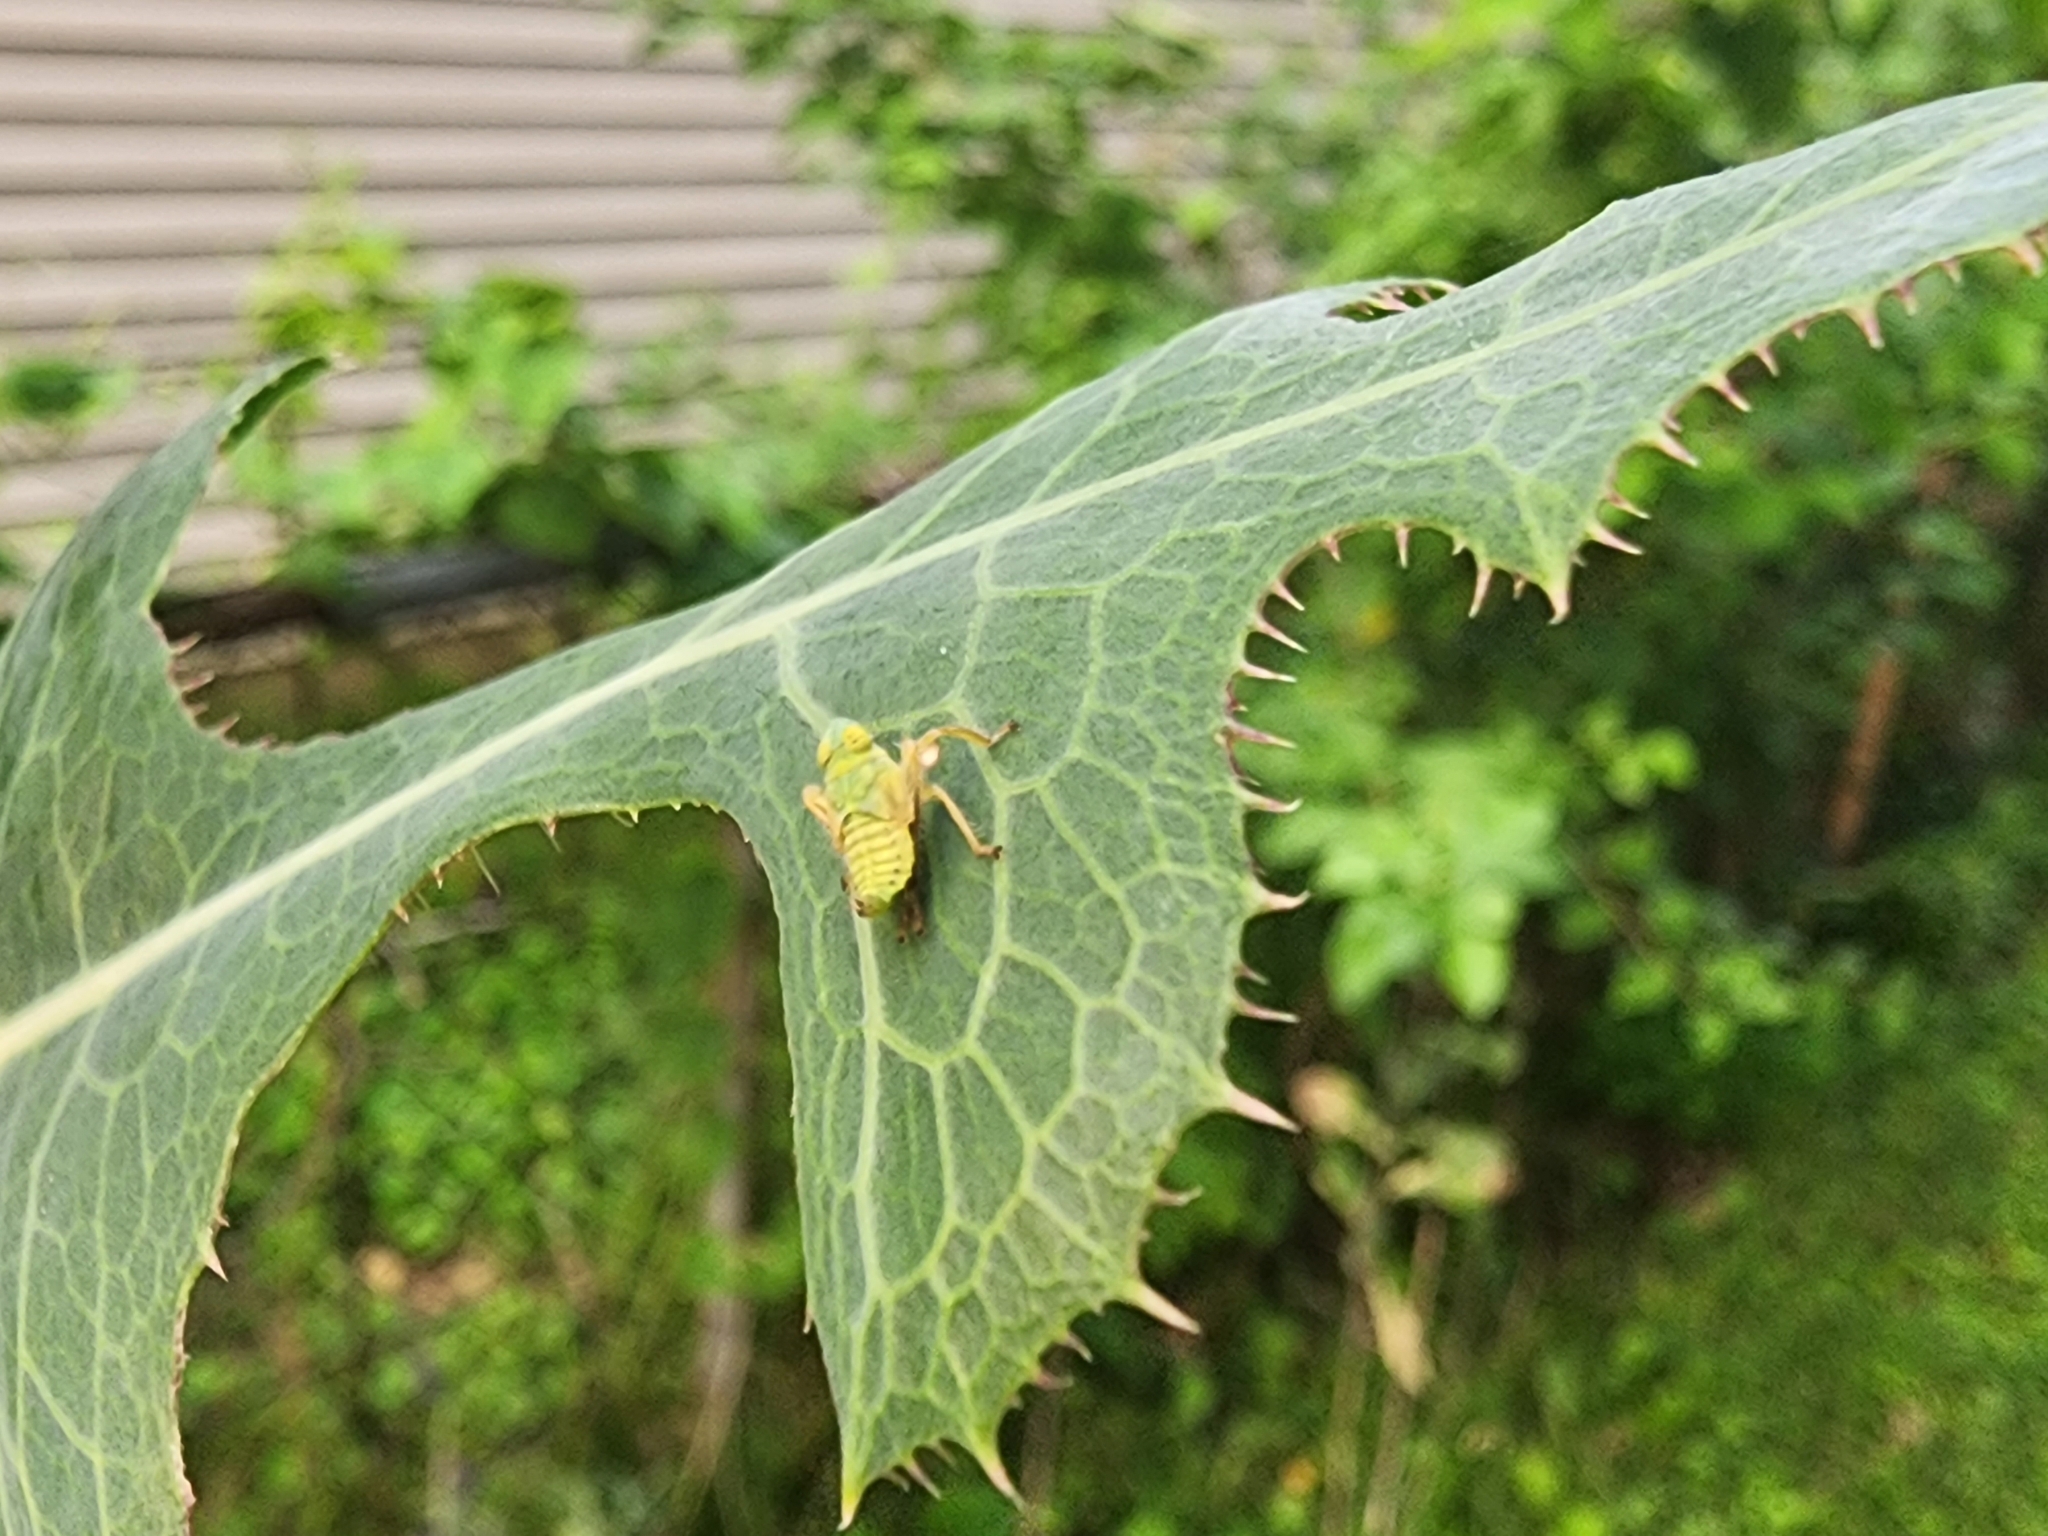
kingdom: Animalia
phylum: Arthropoda
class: Insecta
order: Hemiptera
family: Cicadellidae
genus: Jikradia
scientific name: Jikradia olitoria
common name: Coppery leafhopper
